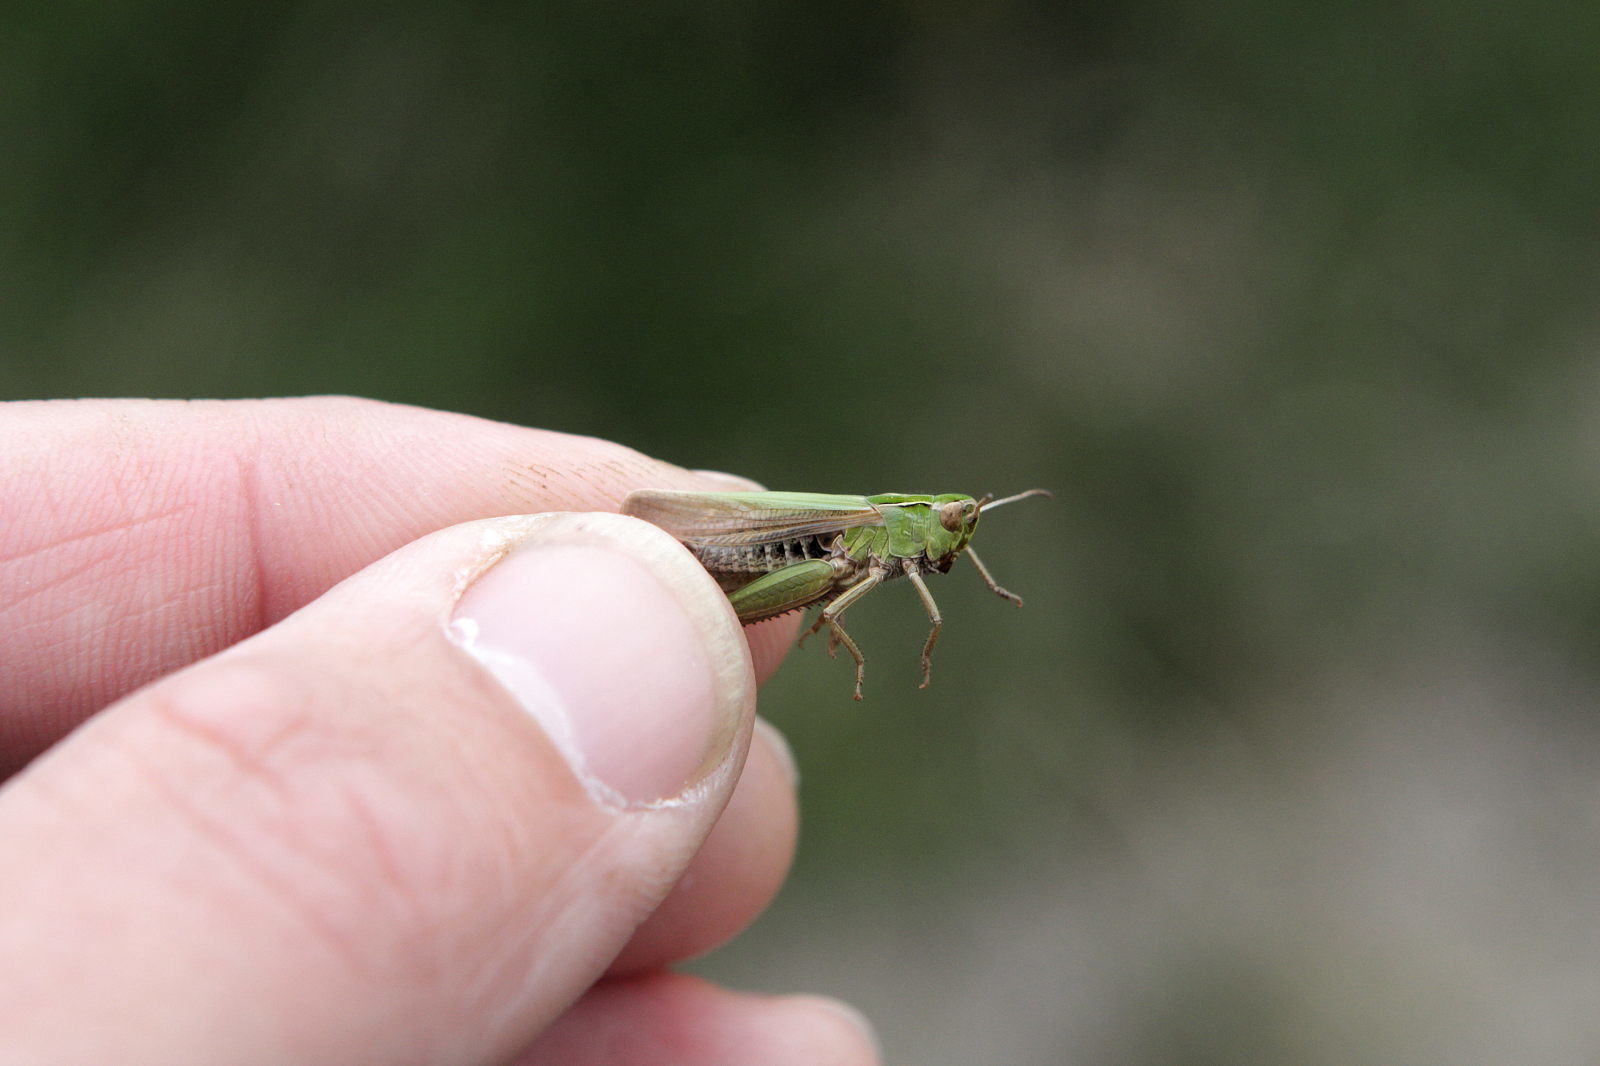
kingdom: Animalia
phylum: Arthropoda
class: Insecta
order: Orthoptera
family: Acrididae
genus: Omocestus
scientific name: Omocestus viridulus
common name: Common green grasshopper
